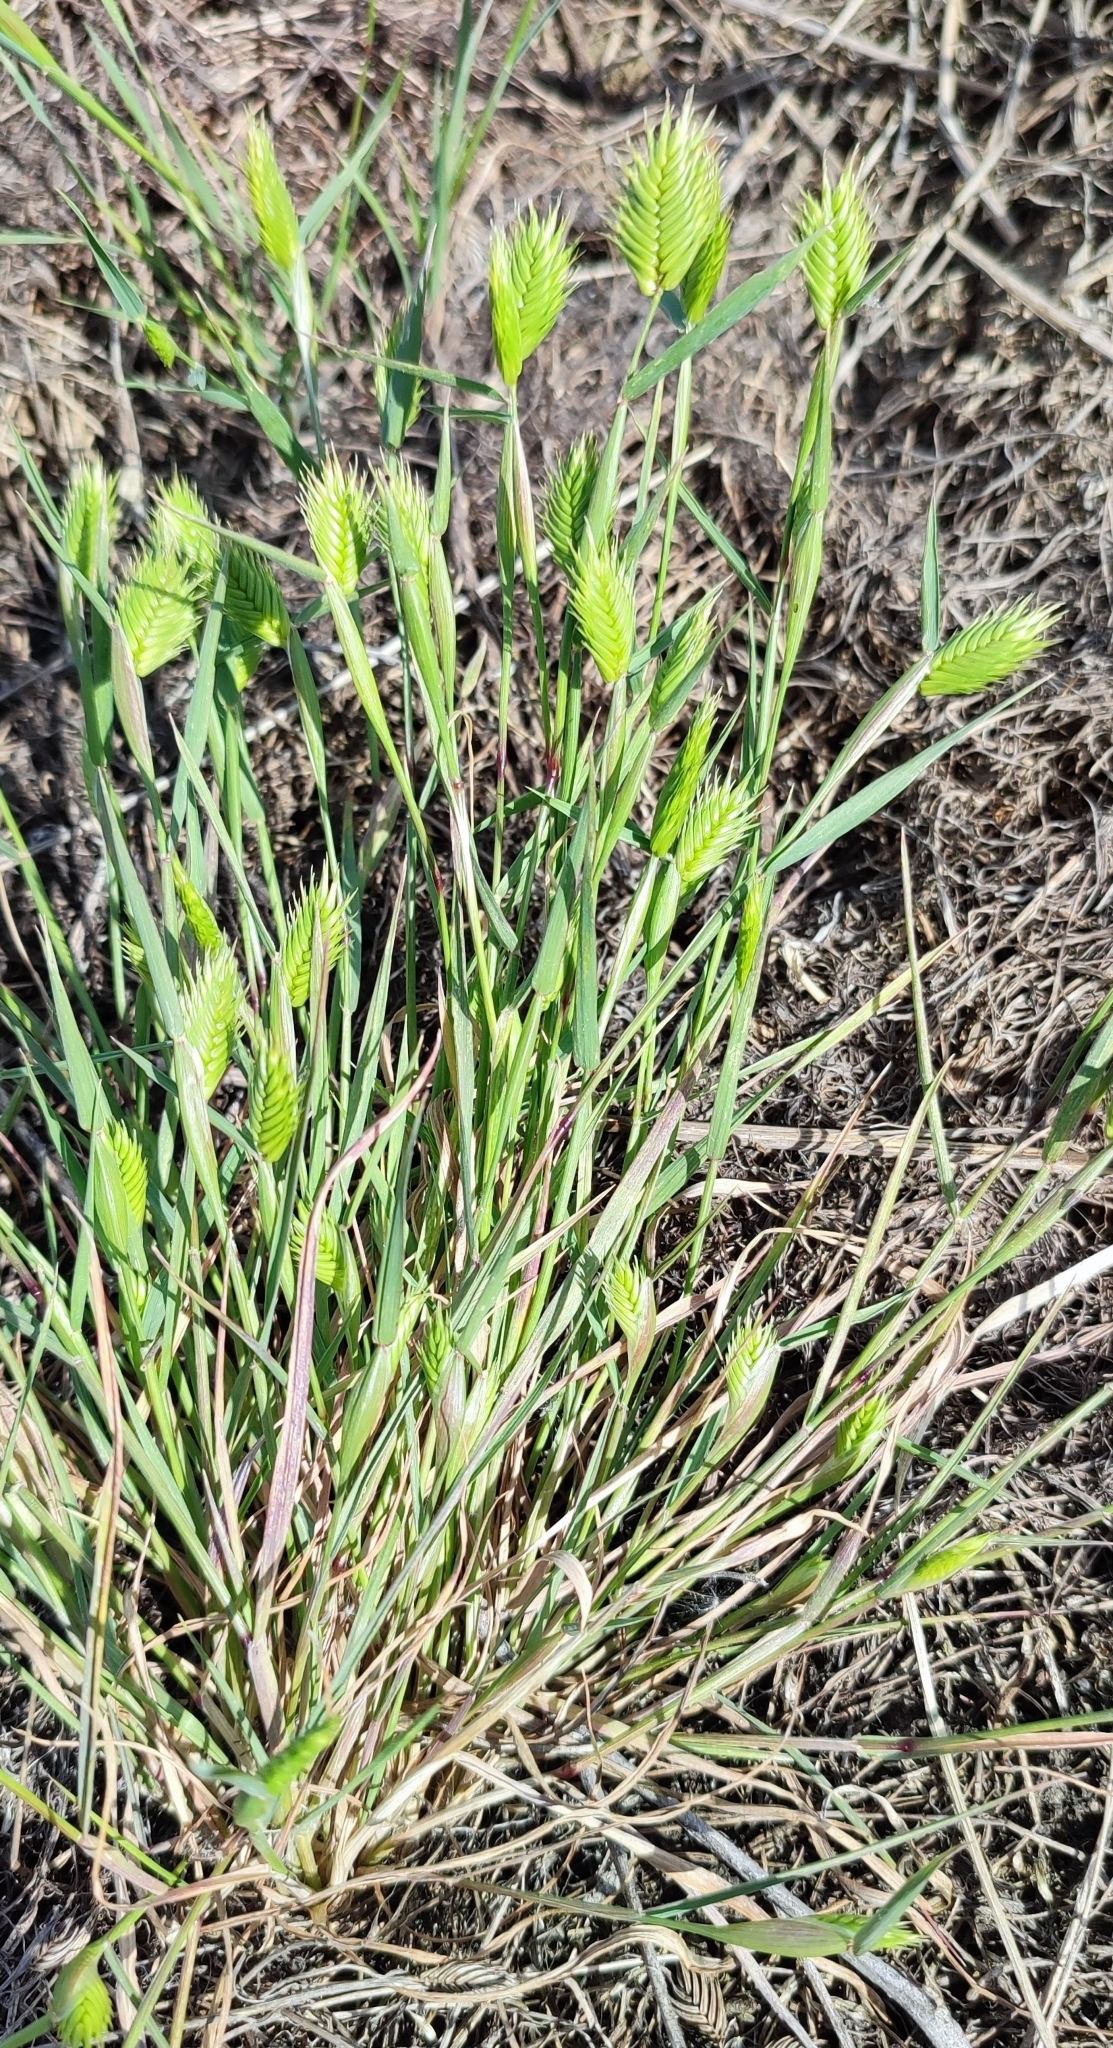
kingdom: Plantae
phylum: Tracheophyta
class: Liliopsida
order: Poales
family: Poaceae
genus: Eremopyrum
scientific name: Eremopyrum triticeum
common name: Annual wheatgrass
